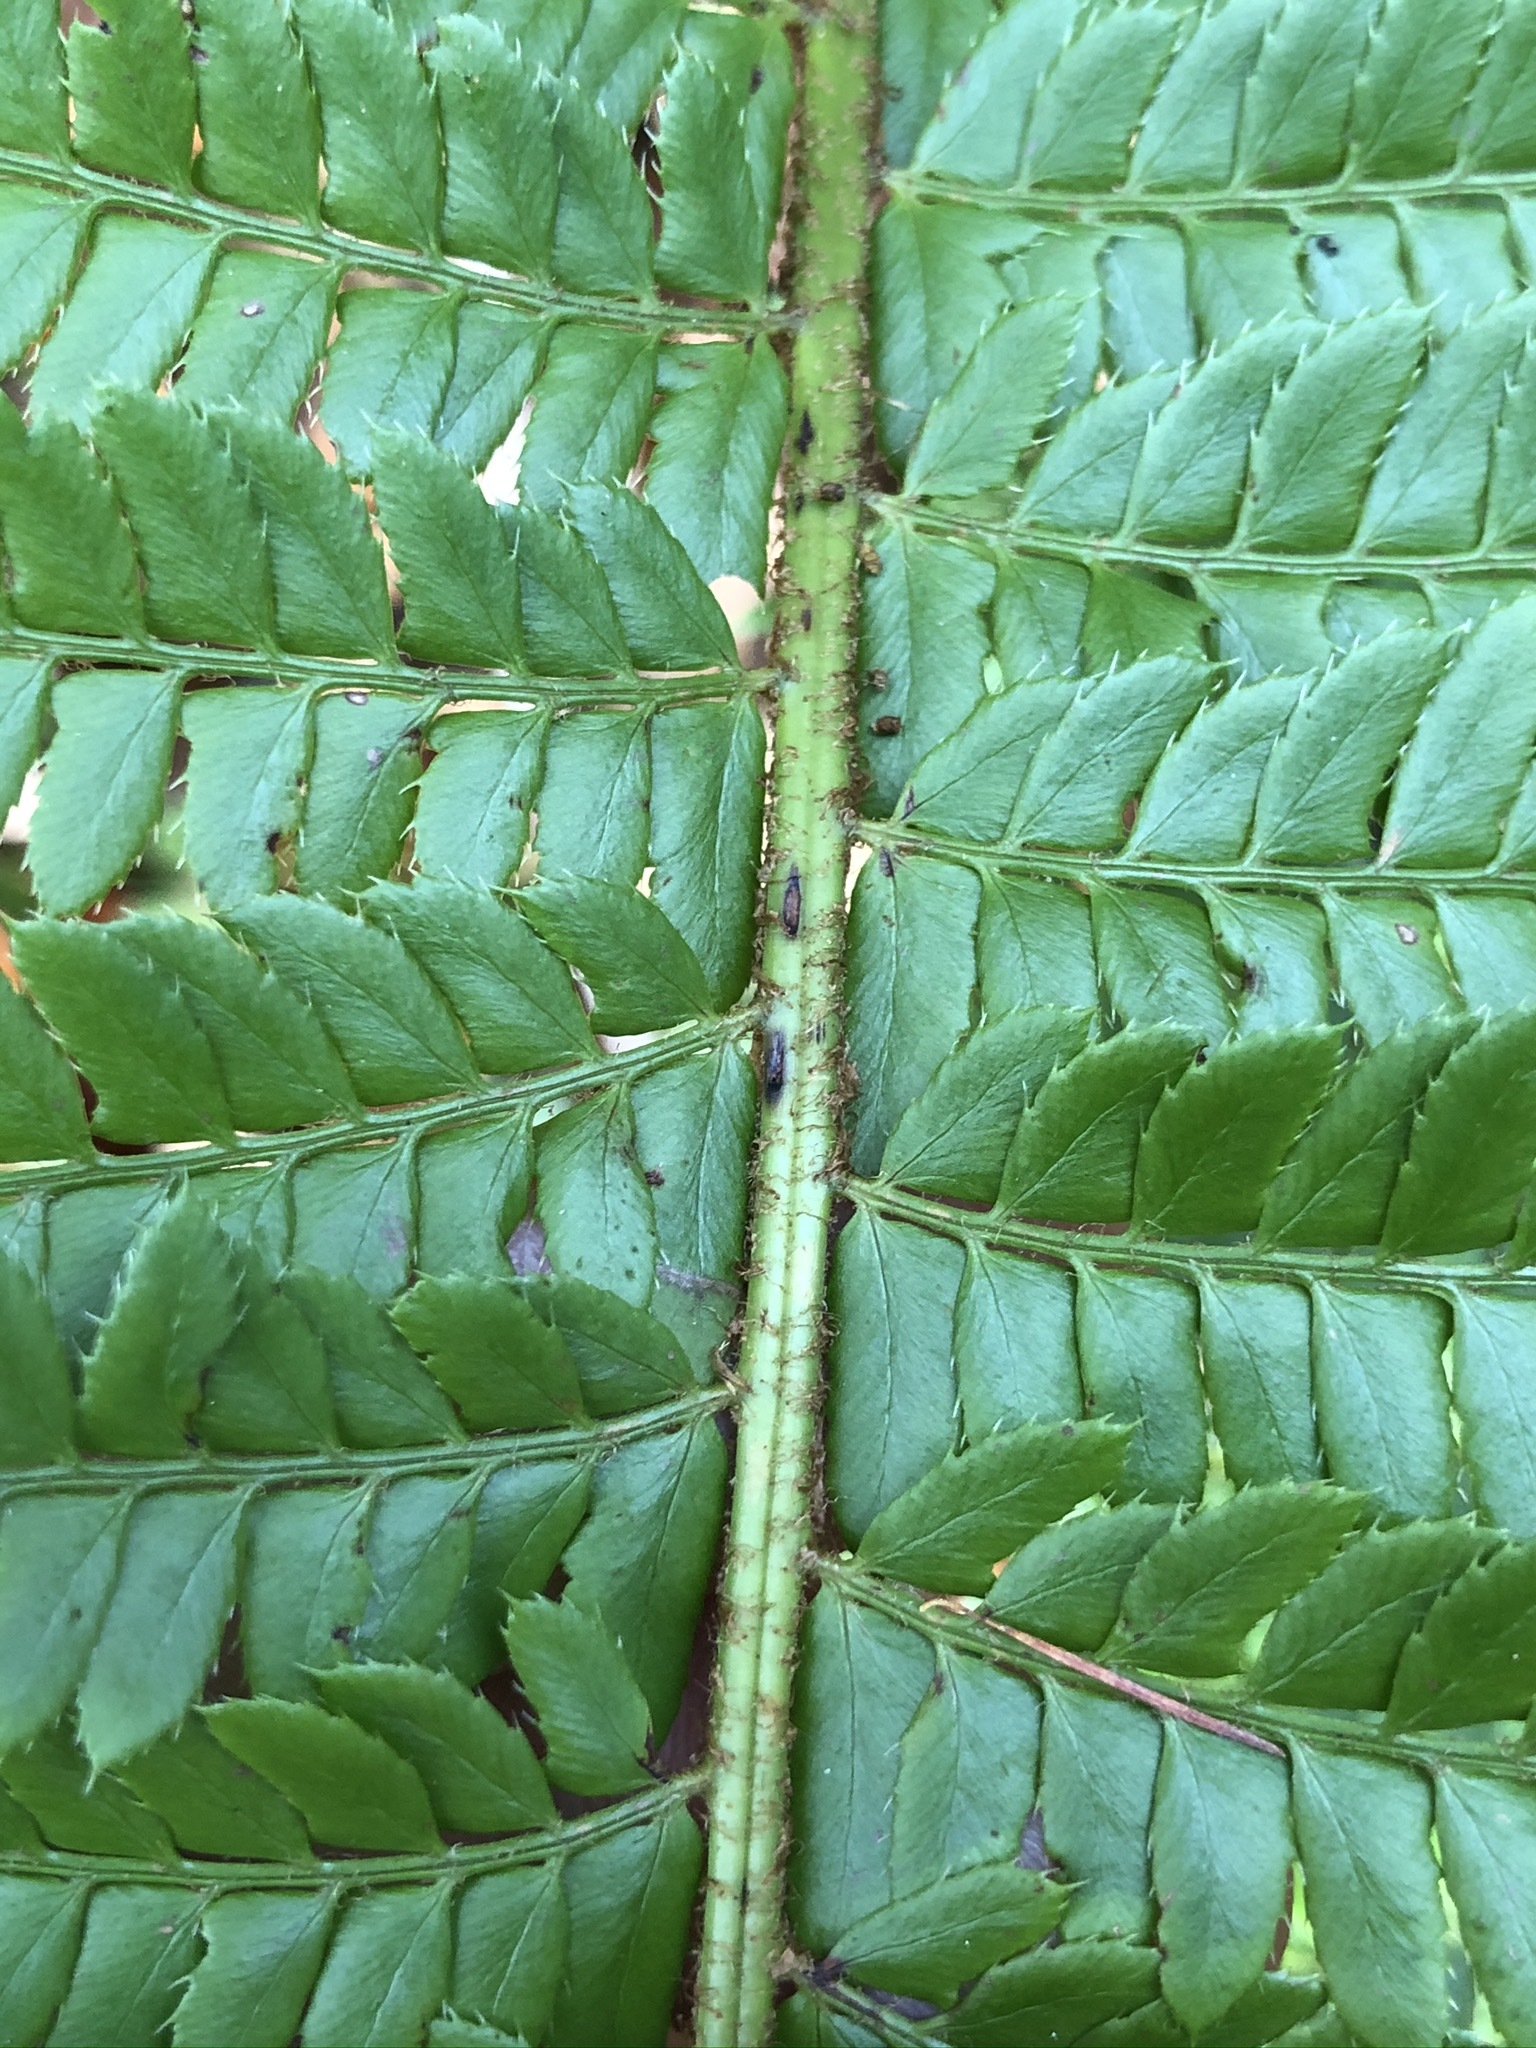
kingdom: Plantae
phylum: Tracheophyta
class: Polypodiopsida
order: Polypodiales
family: Dryopteridaceae
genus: Polystichum
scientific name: Polystichum aculeatum
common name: Hard shield-fern
